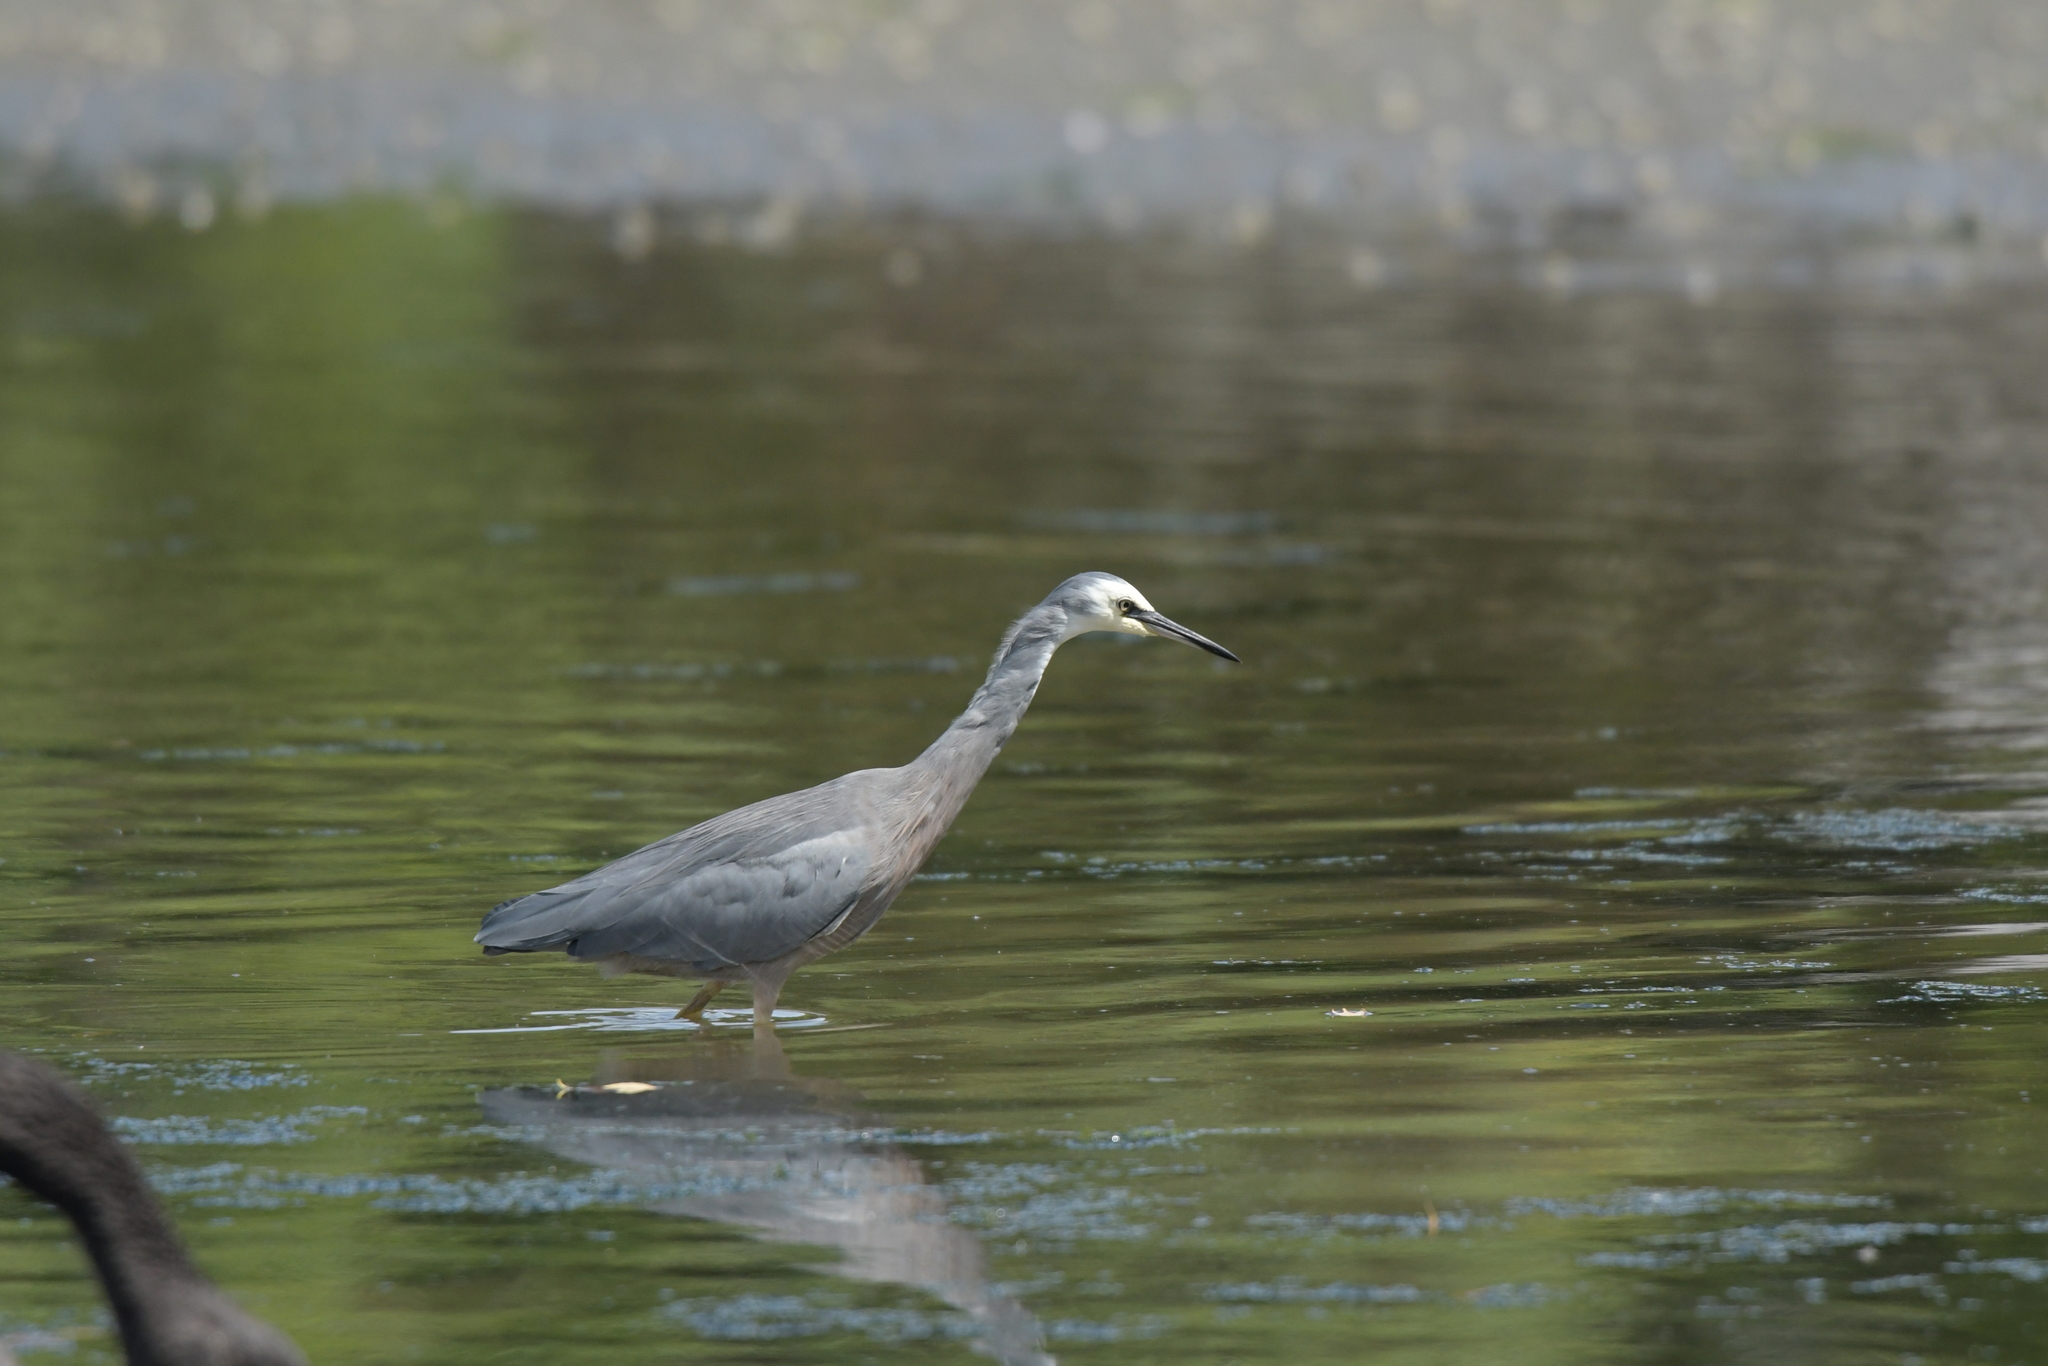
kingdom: Animalia
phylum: Chordata
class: Aves
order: Pelecaniformes
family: Ardeidae
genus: Egretta
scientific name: Egretta novaehollandiae
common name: White-faced heron
